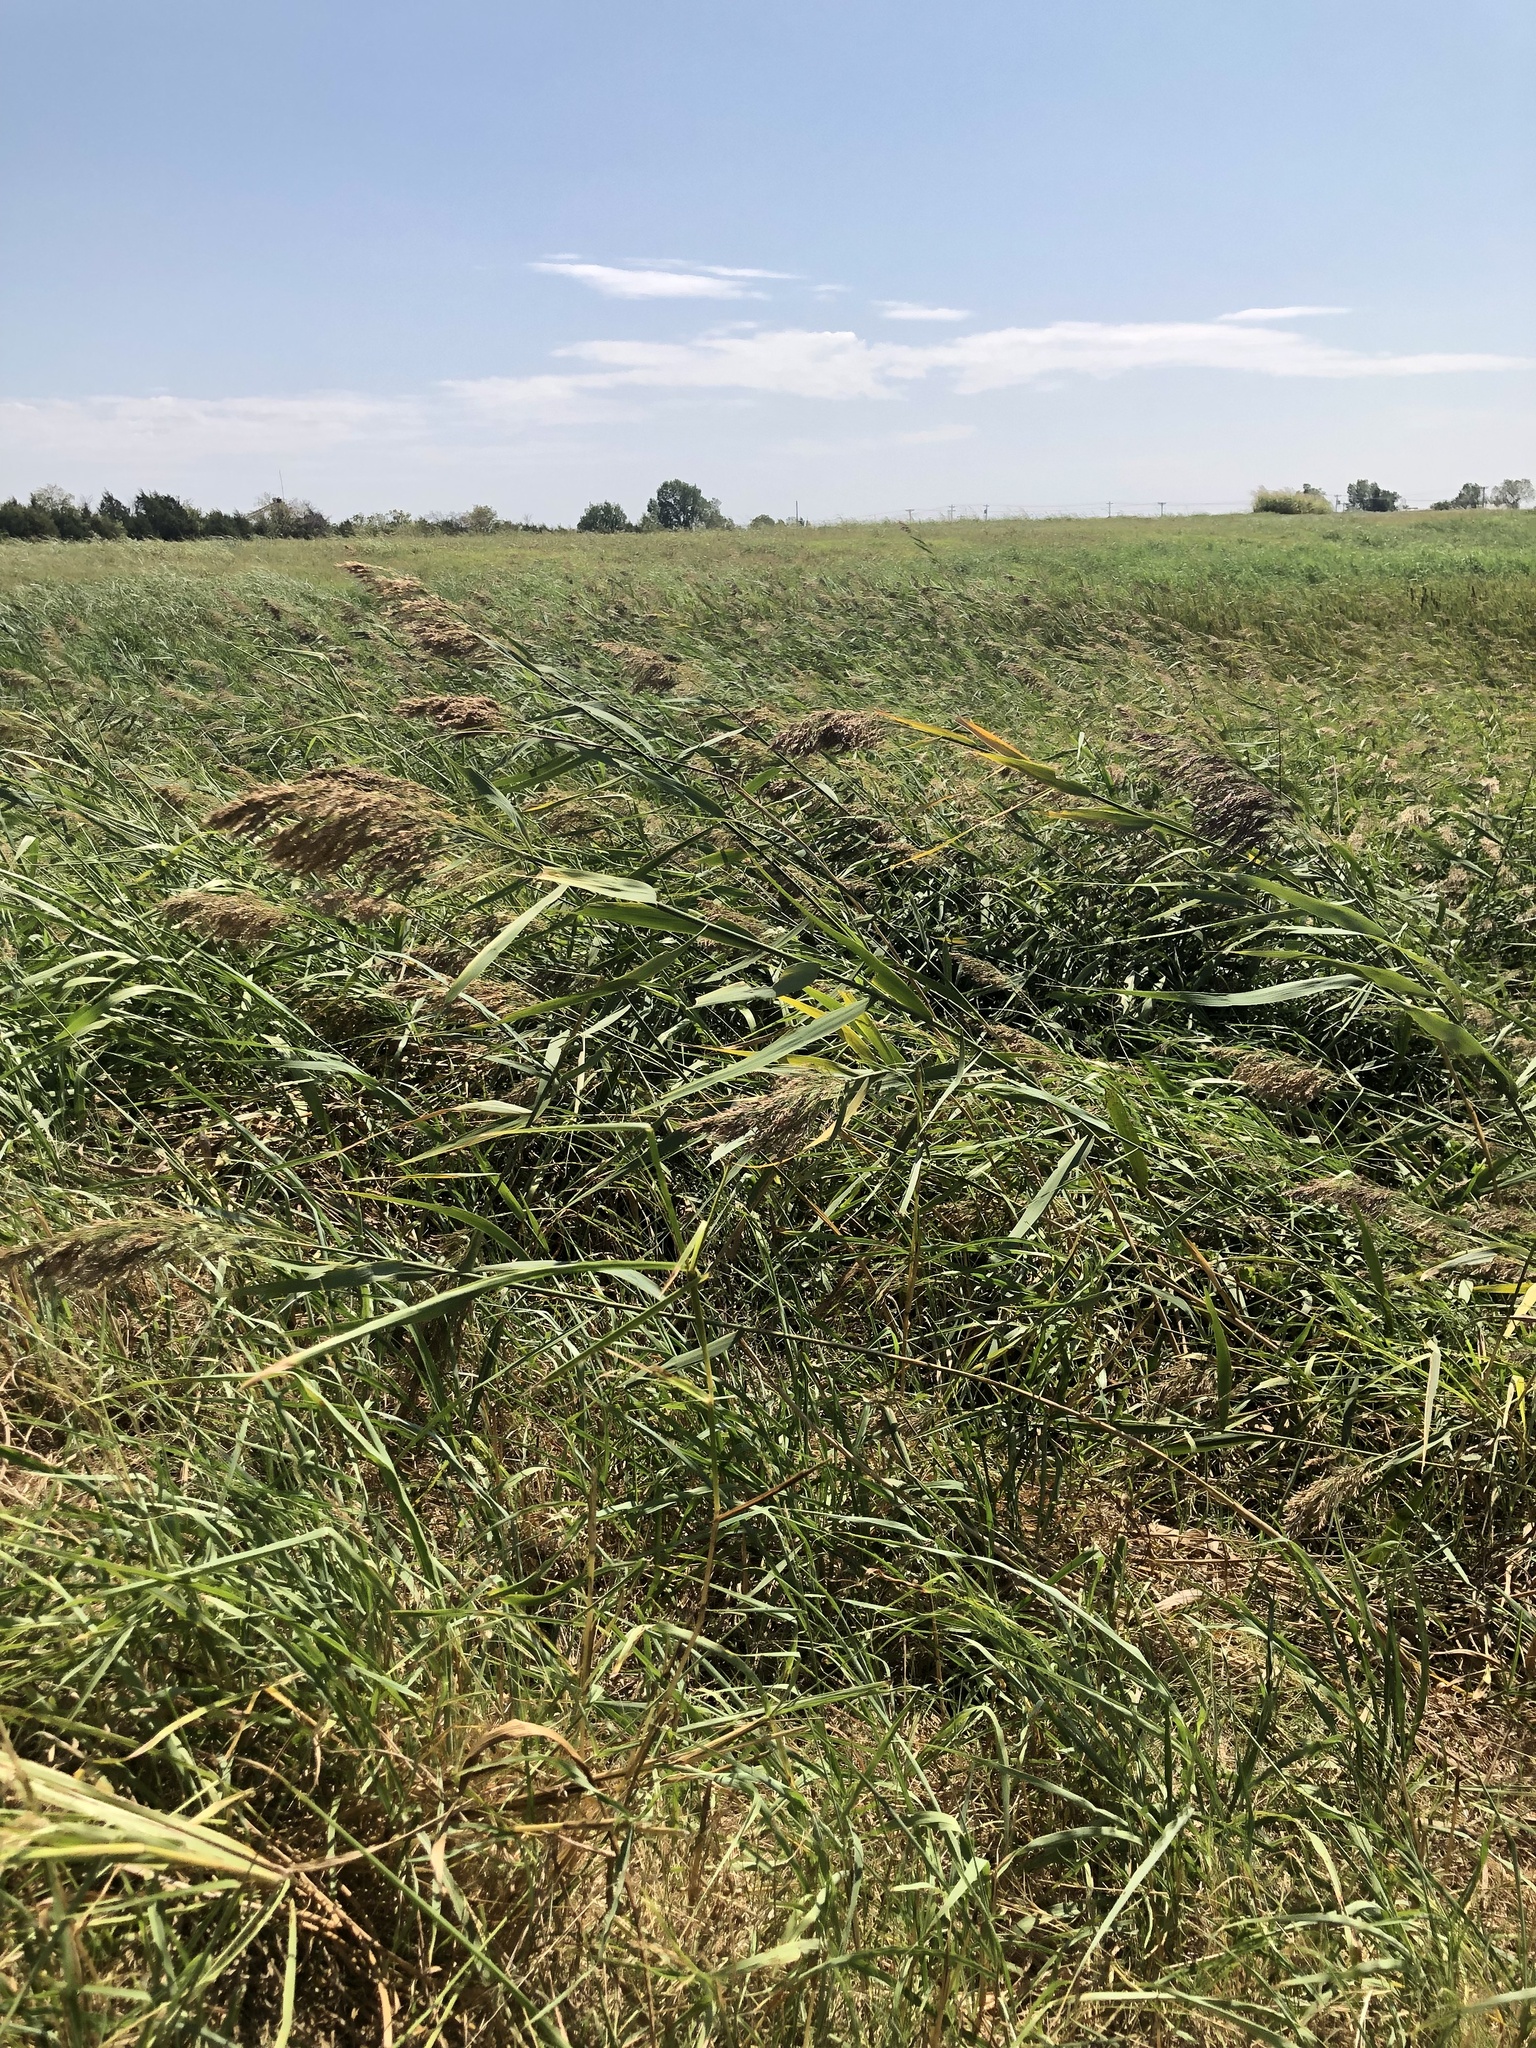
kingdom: Plantae
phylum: Tracheophyta
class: Liliopsida
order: Poales
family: Poaceae
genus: Phragmites
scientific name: Phragmites australis
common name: Common reed
